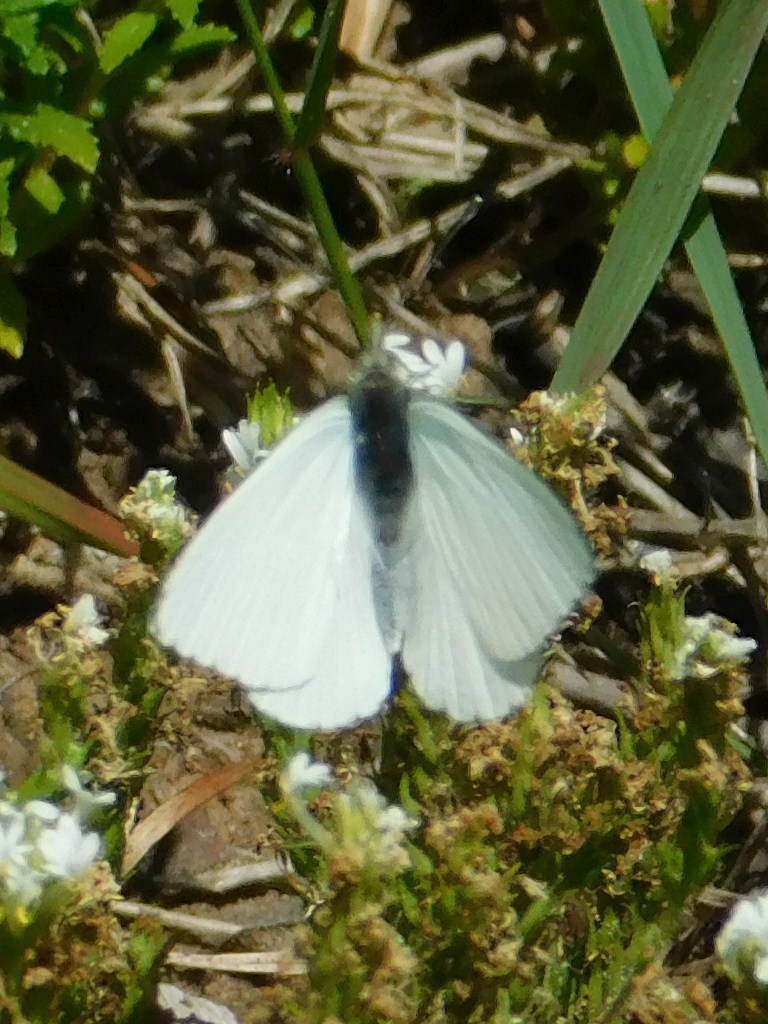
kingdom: Animalia
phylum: Arthropoda
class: Insecta
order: Lepidoptera
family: Pieridae
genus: Dixeia
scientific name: Dixeia charina
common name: African small white
